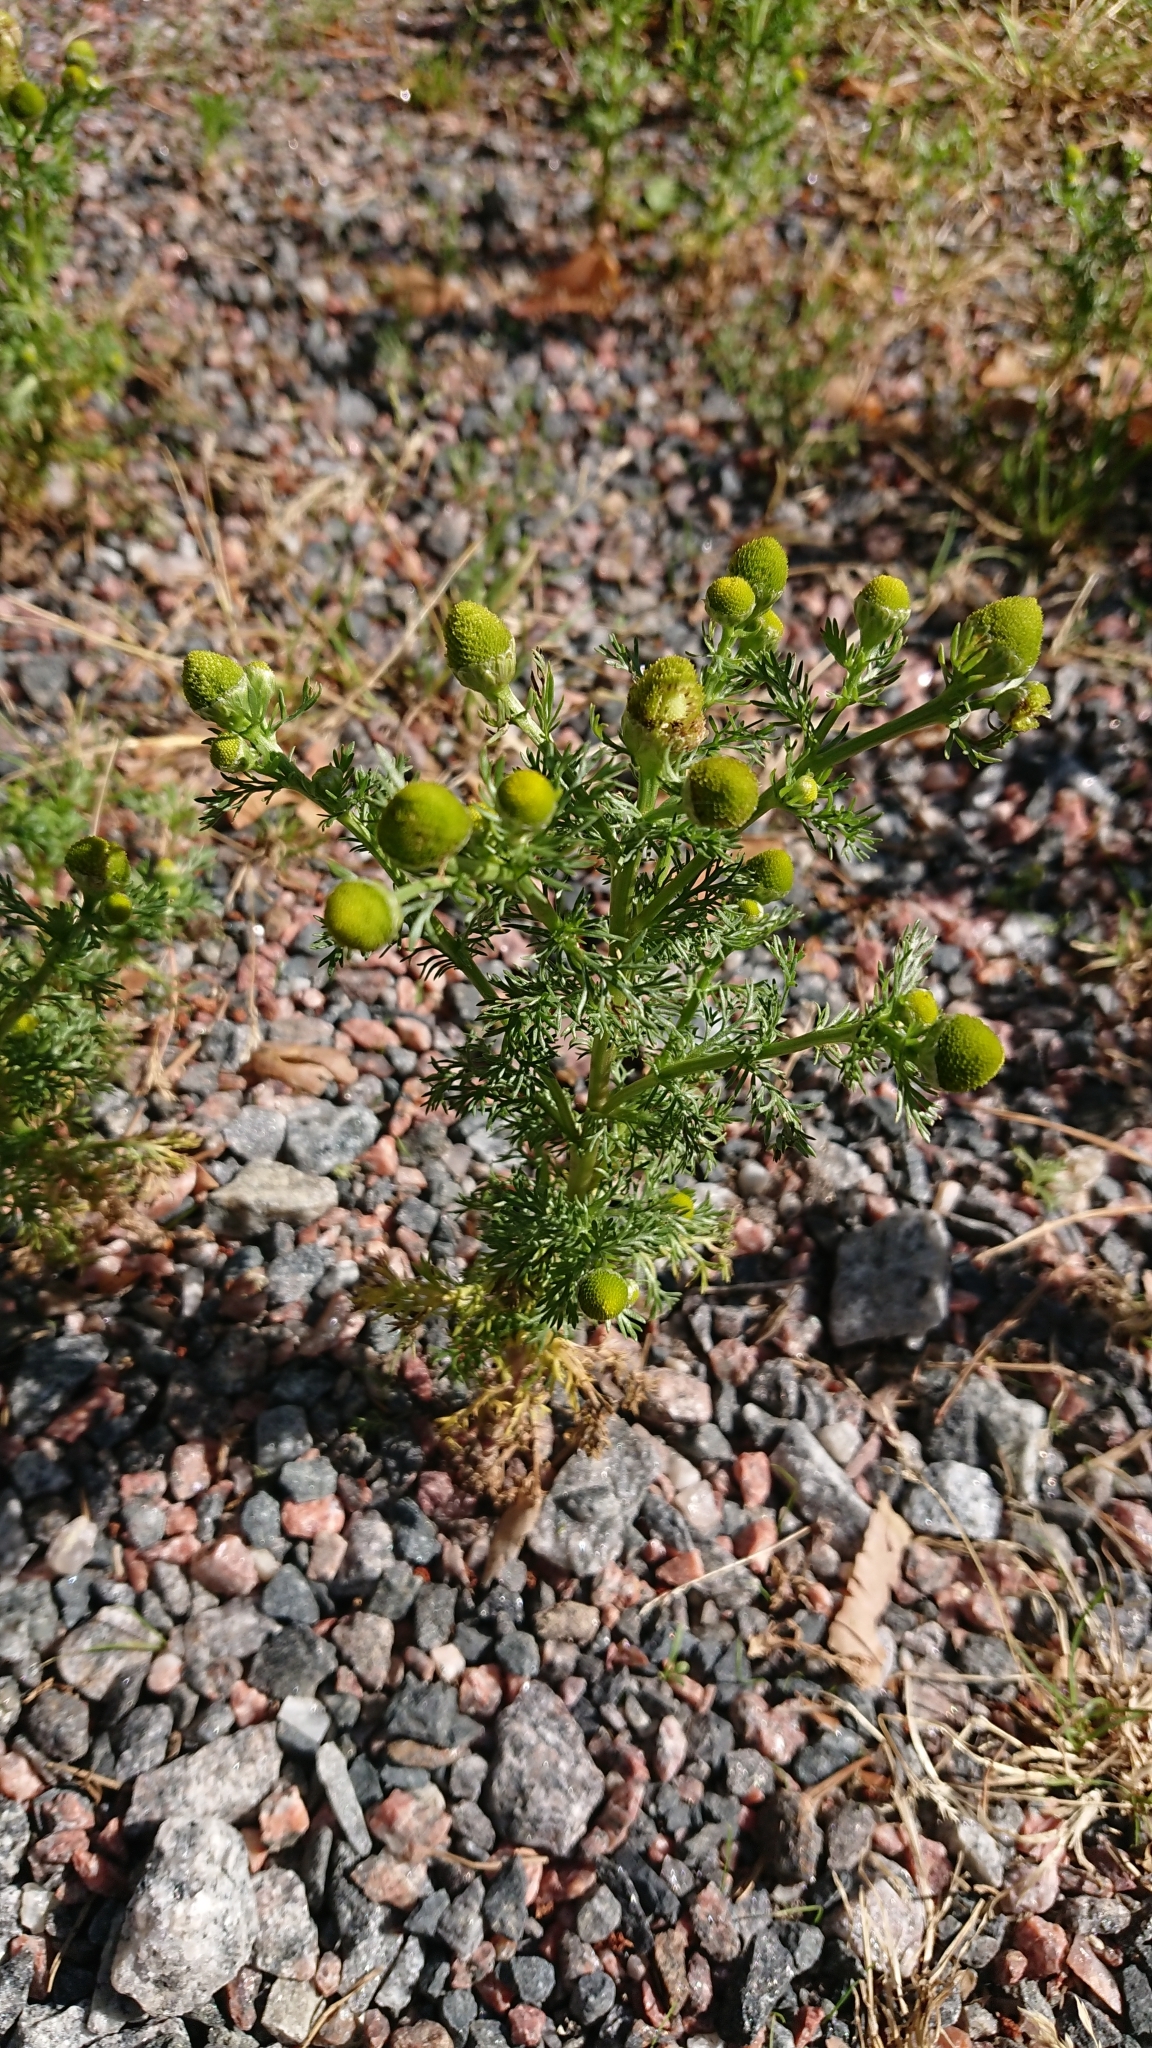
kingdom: Plantae
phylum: Tracheophyta
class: Magnoliopsida
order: Asterales
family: Asteraceae
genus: Matricaria
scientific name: Matricaria discoidea
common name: Disc mayweed
